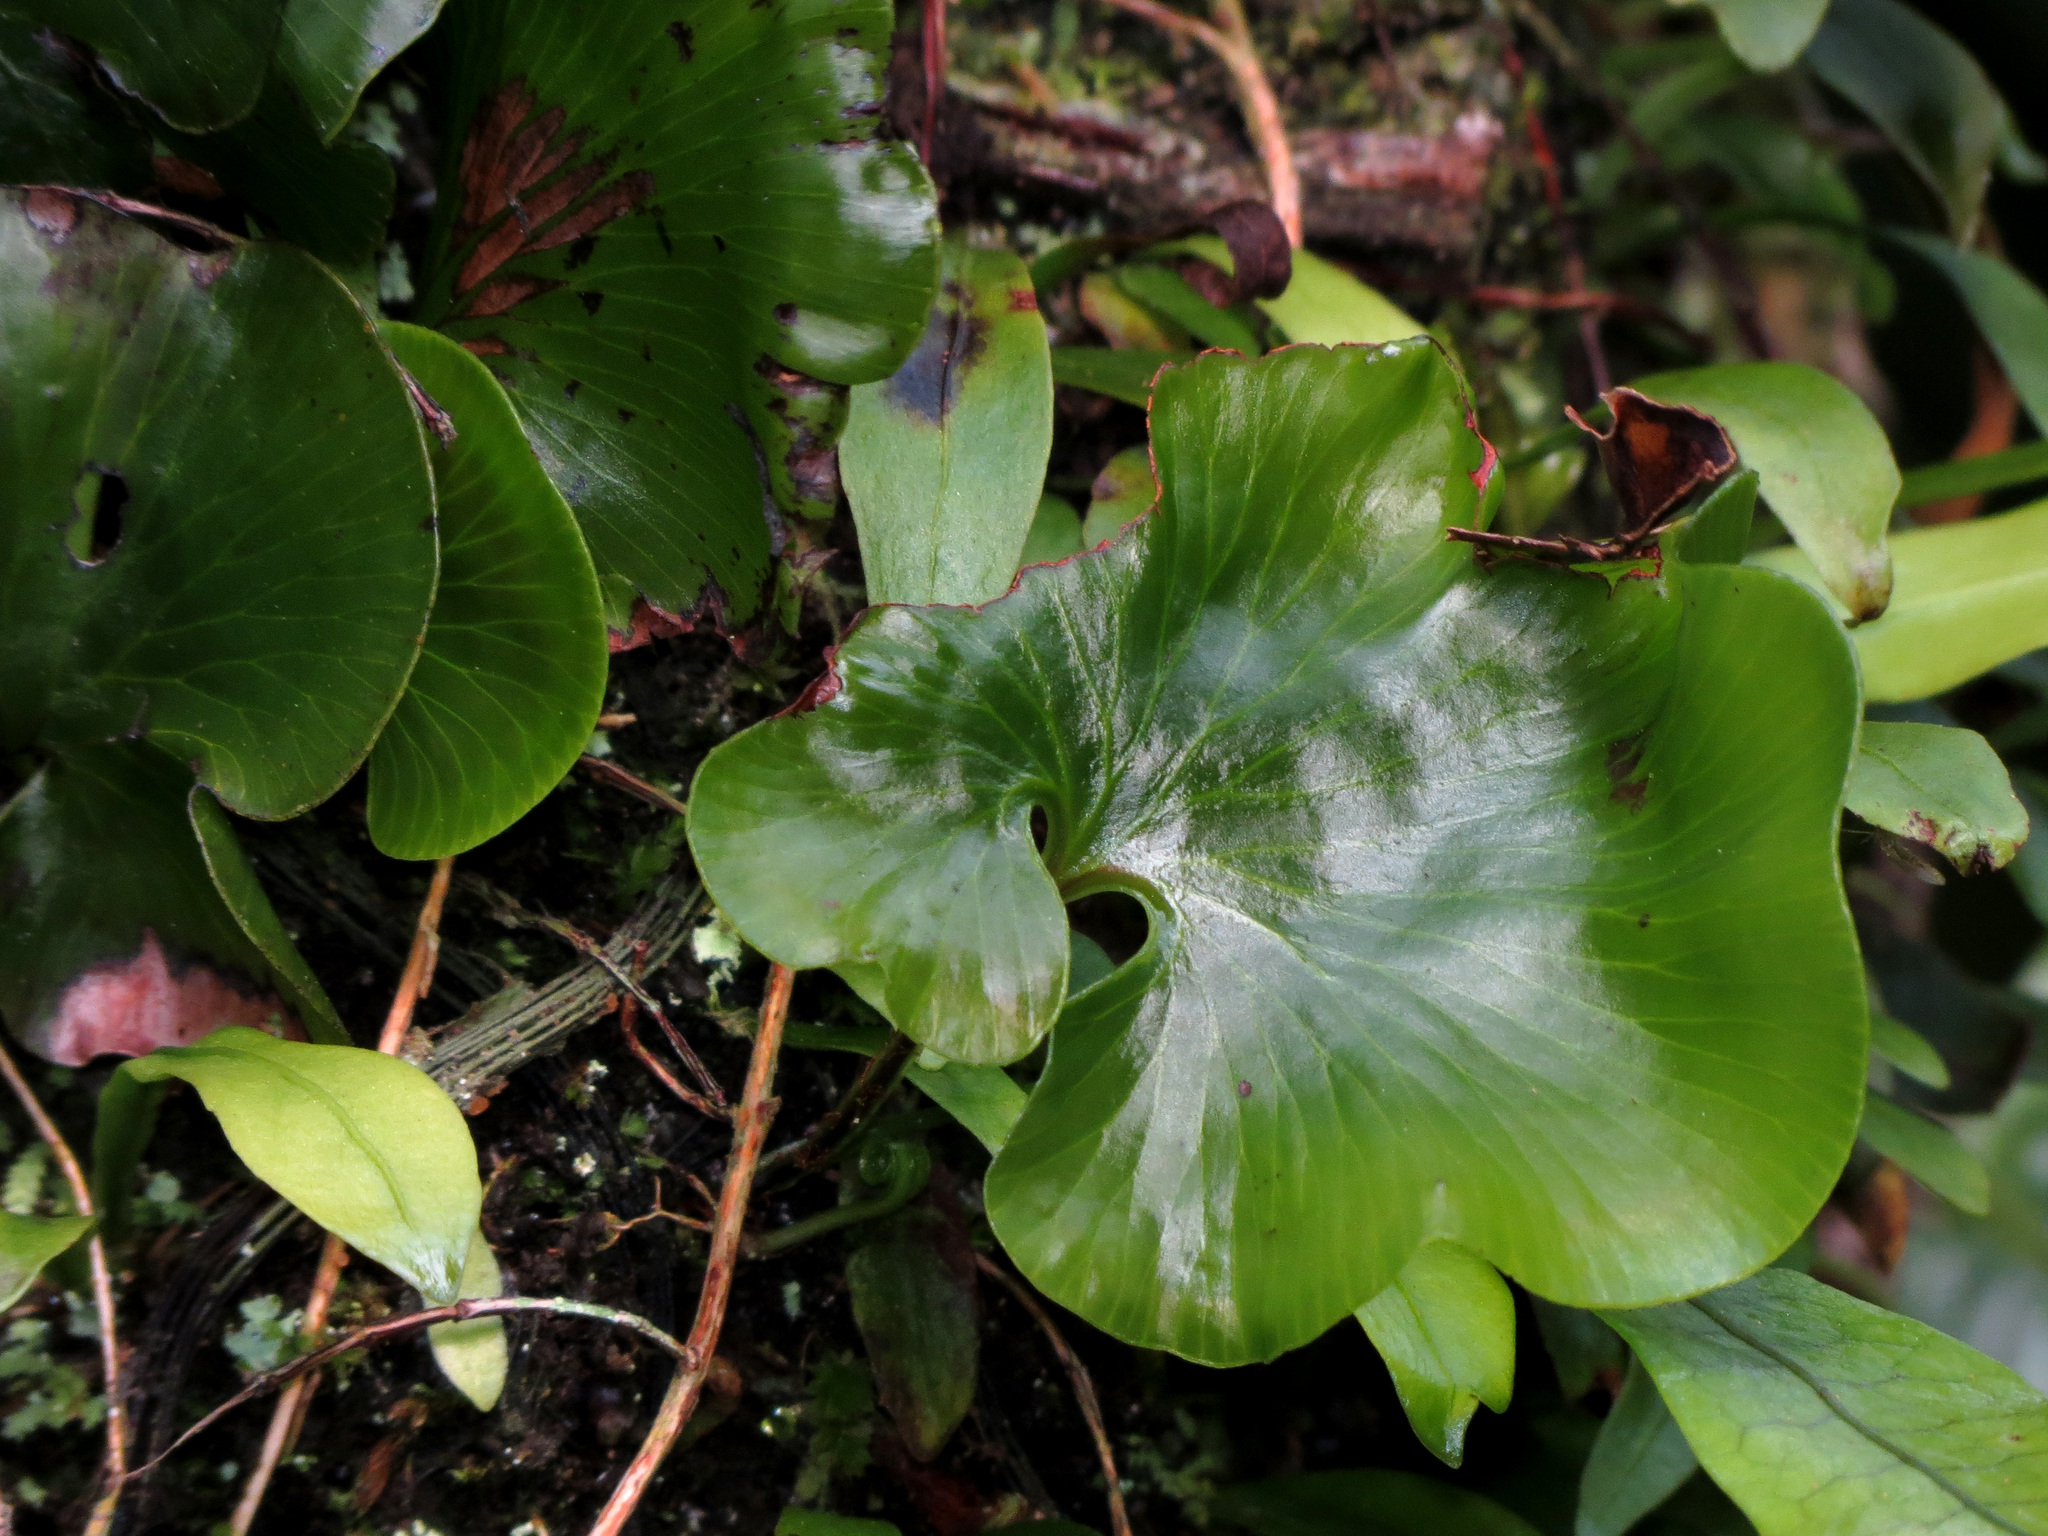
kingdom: Plantae
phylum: Tracheophyta
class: Polypodiopsida
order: Hymenophyllales
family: Hymenophyllaceae
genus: Hymenophyllum
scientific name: Hymenophyllum nephrophyllum
